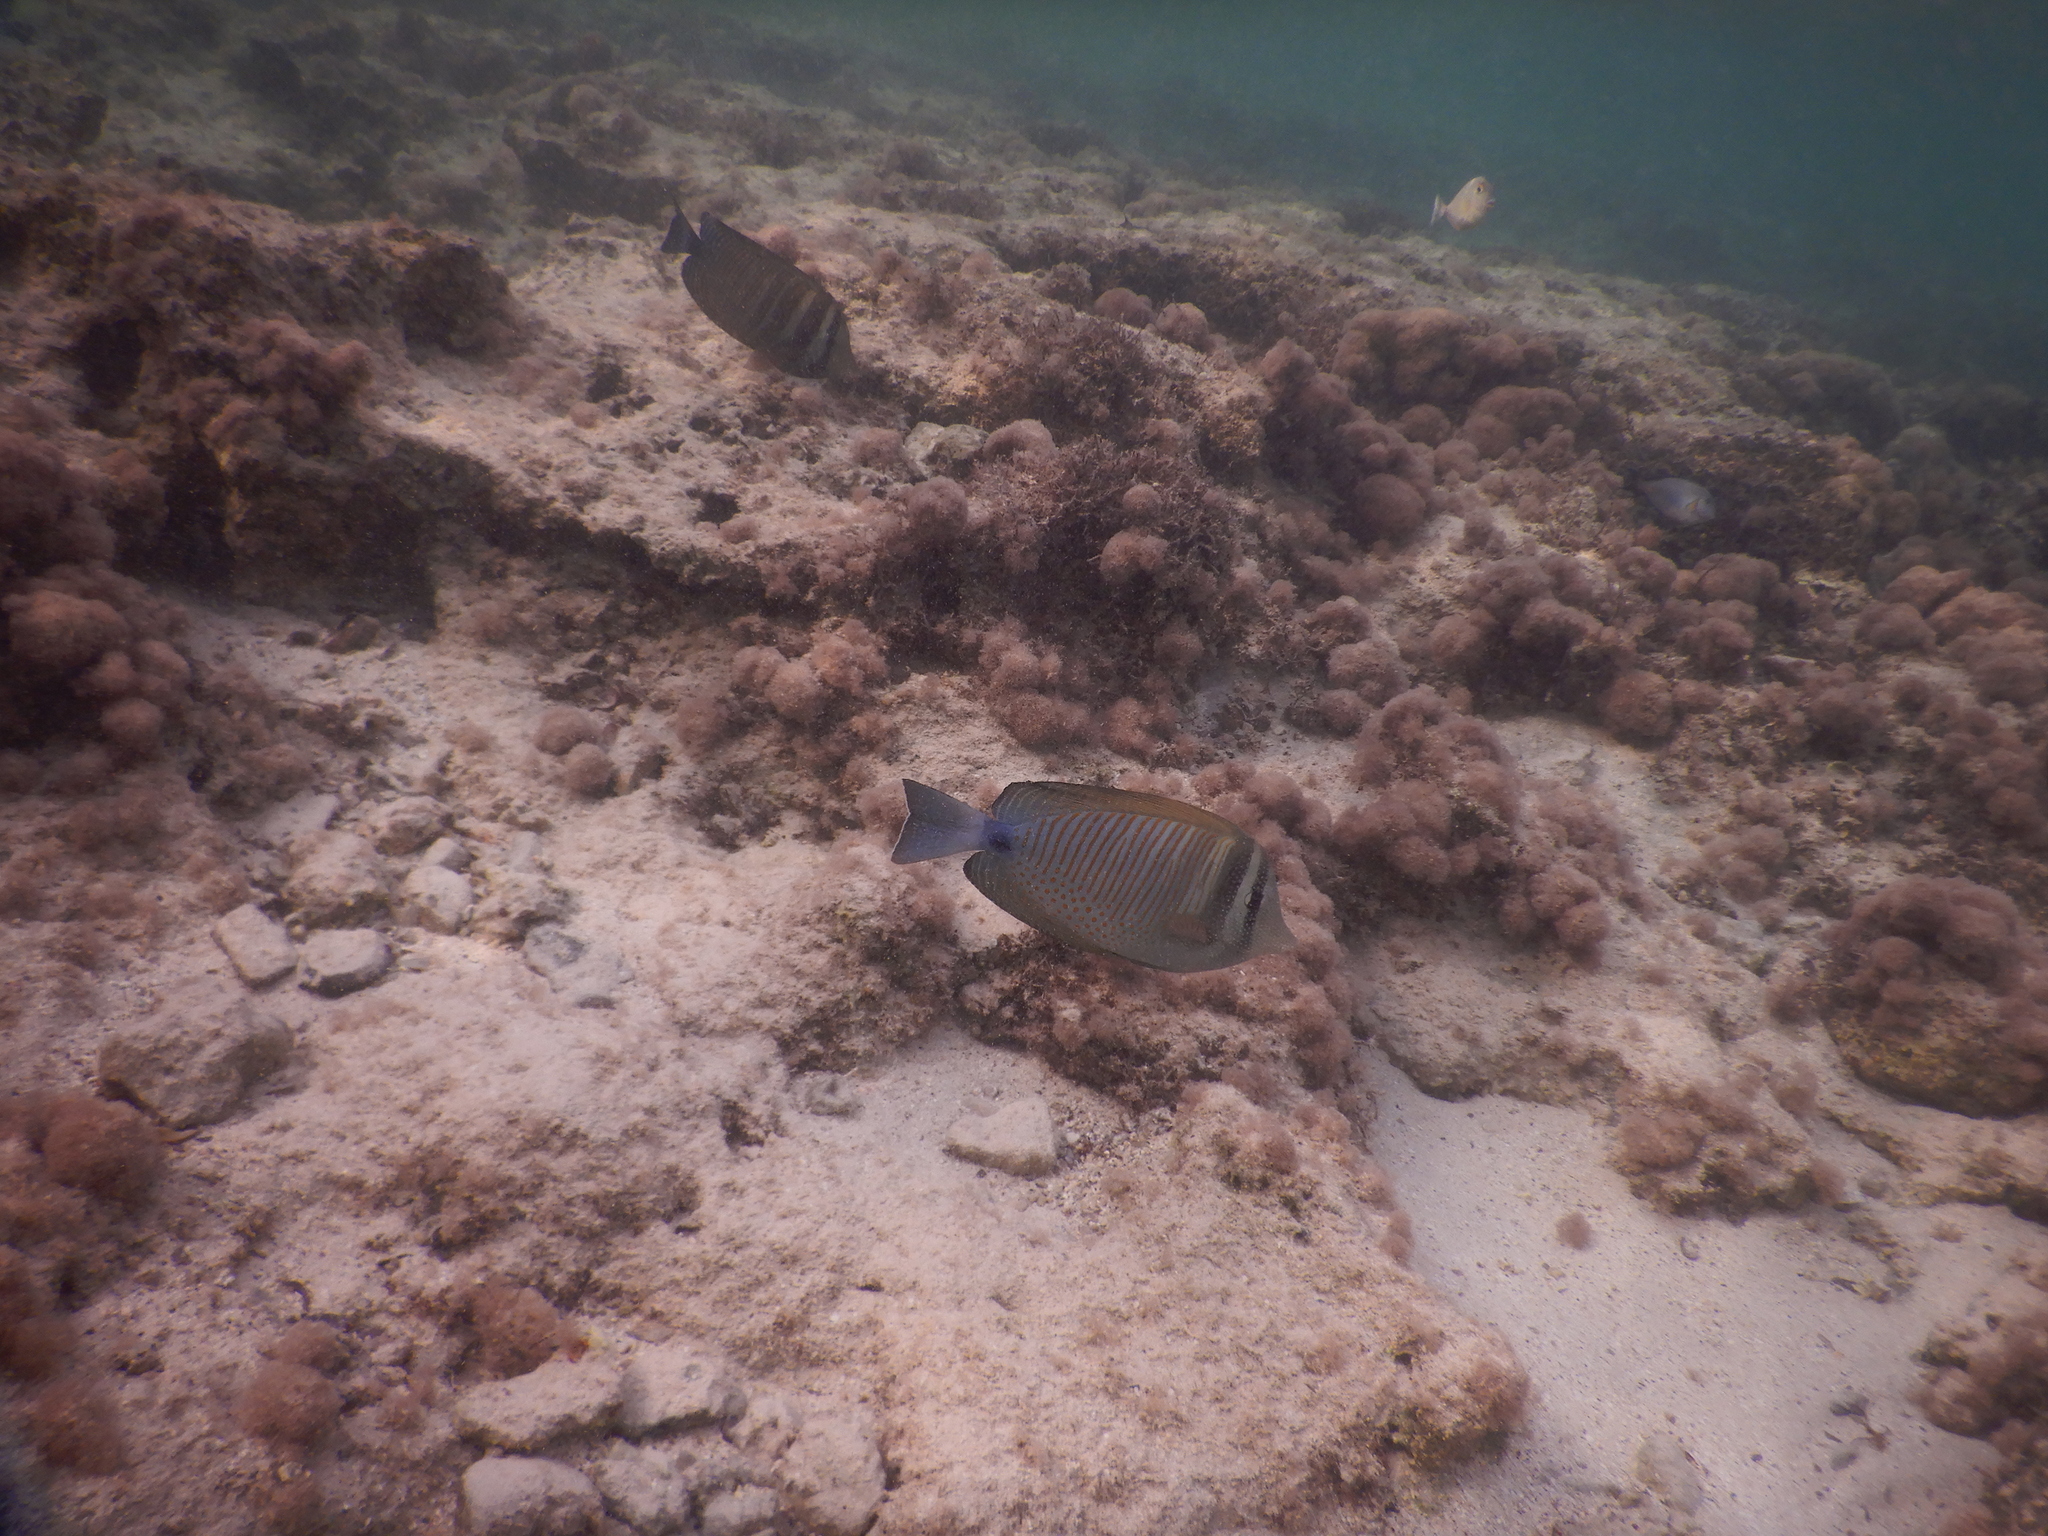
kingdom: Animalia
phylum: Chordata
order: Perciformes
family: Acanthuridae
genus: Zebrasoma
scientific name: Zebrasoma desjardinii
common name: Desjardin's sailfin tang
